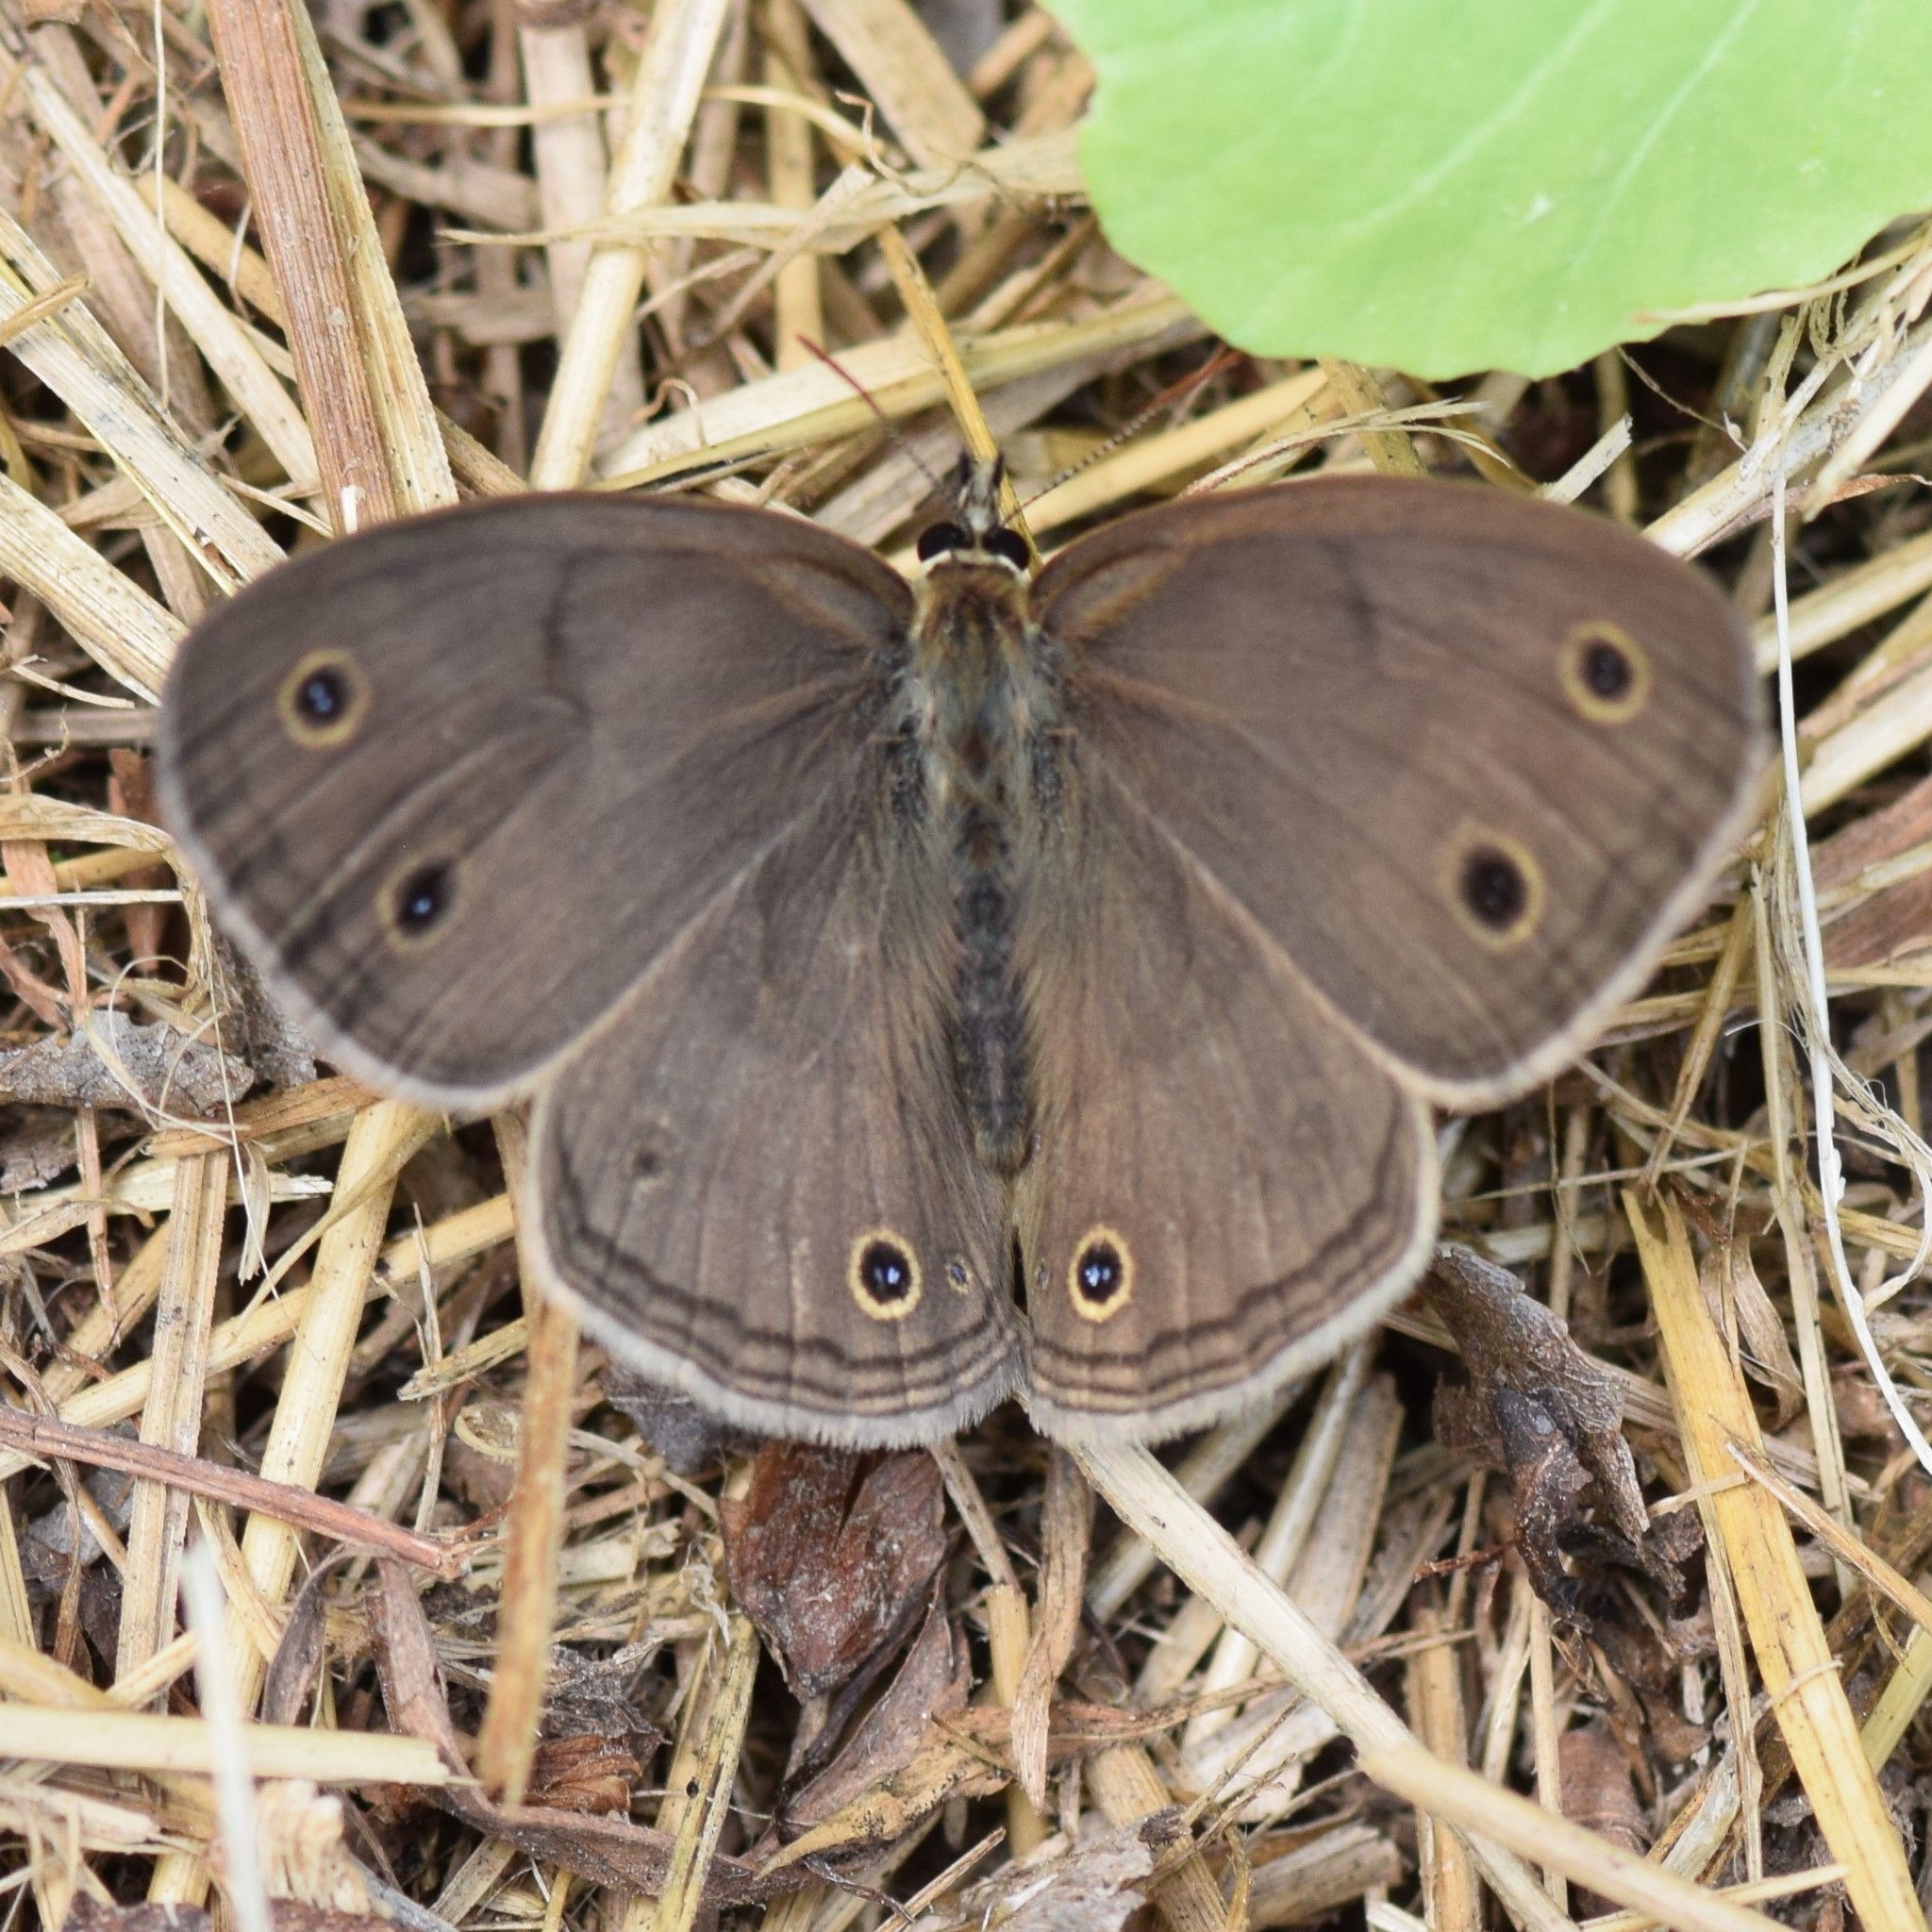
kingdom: Animalia
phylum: Arthropoda
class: Insecta
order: Lepidoptera
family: Nymphalidae
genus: Euptychia
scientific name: Euptychia cymela
